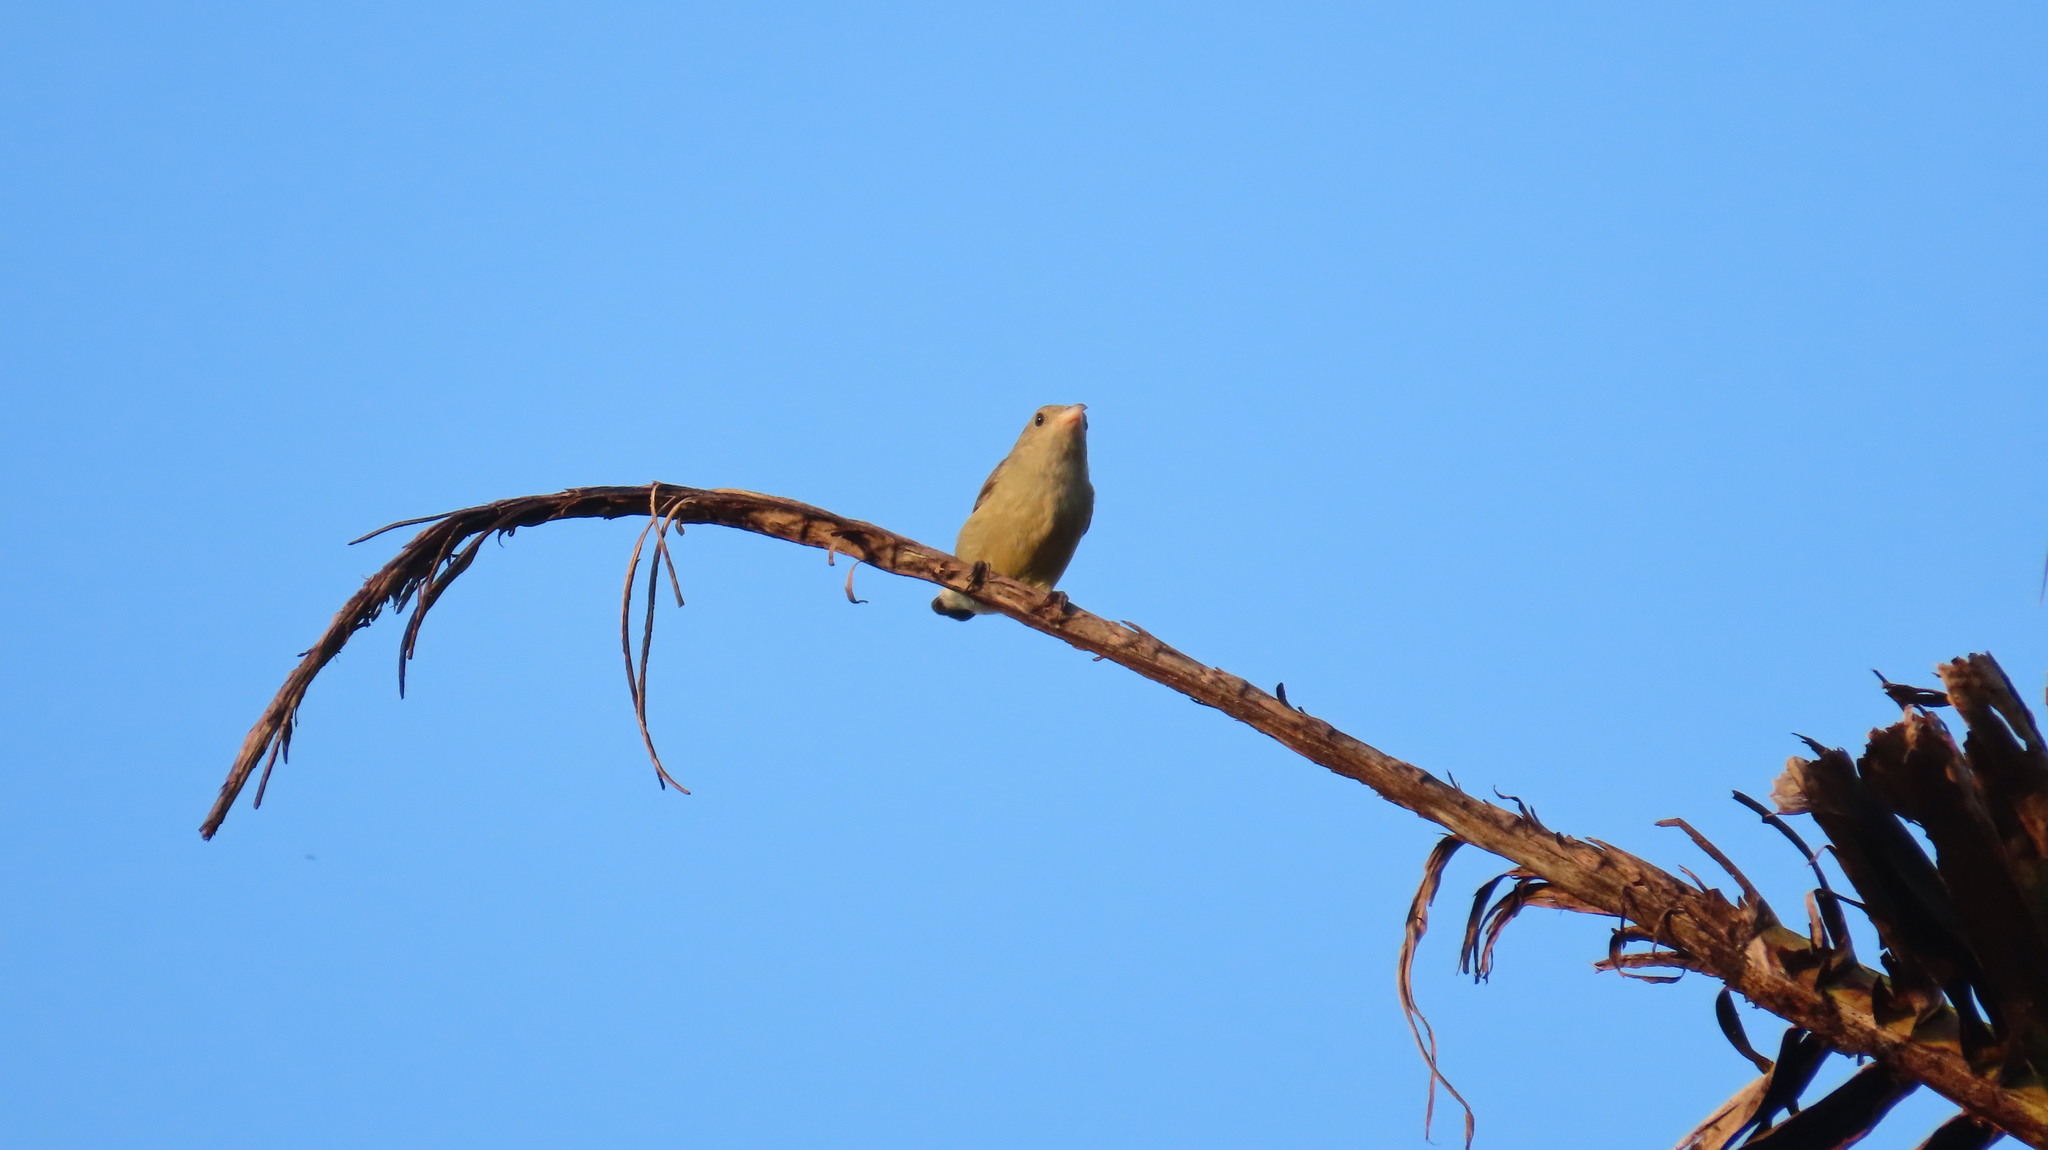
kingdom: Animalia
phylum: Chordata
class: Aves
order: Passeriformes
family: Dicaeidae
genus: Dicaeum
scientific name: Dicaeum erythrorhynchos
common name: Pale-billed flowerpecker
